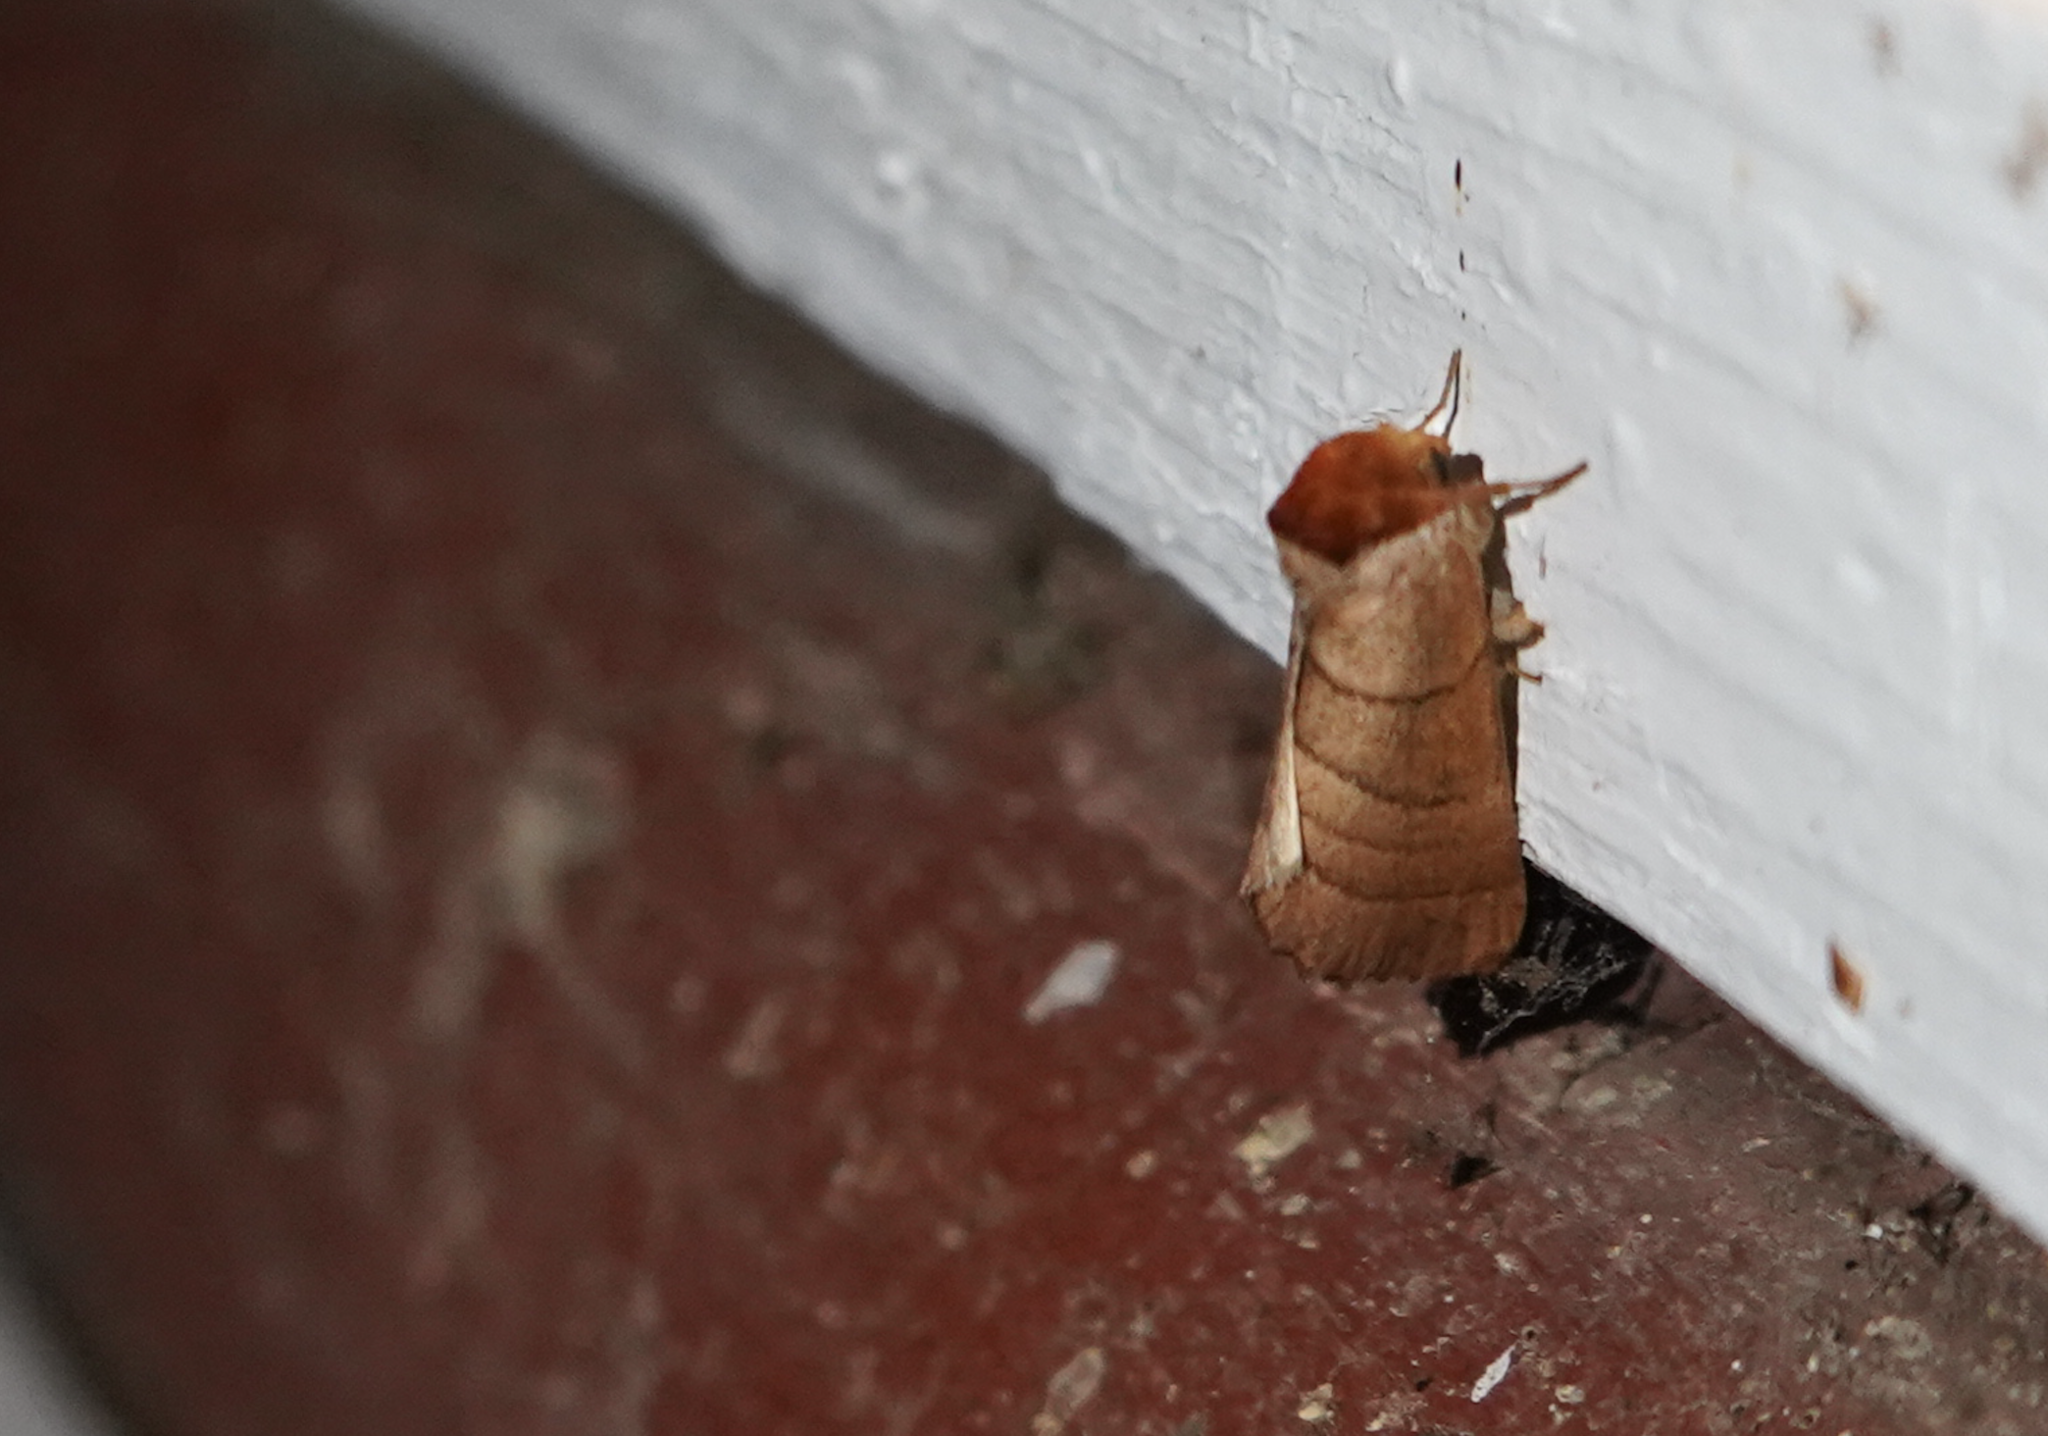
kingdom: Animalia
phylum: Arthropoda
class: Insecta
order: Lepidoptera
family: Notodontidae
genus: Datana
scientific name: Datana ministra
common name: Yellow-necked caterpillar moth
